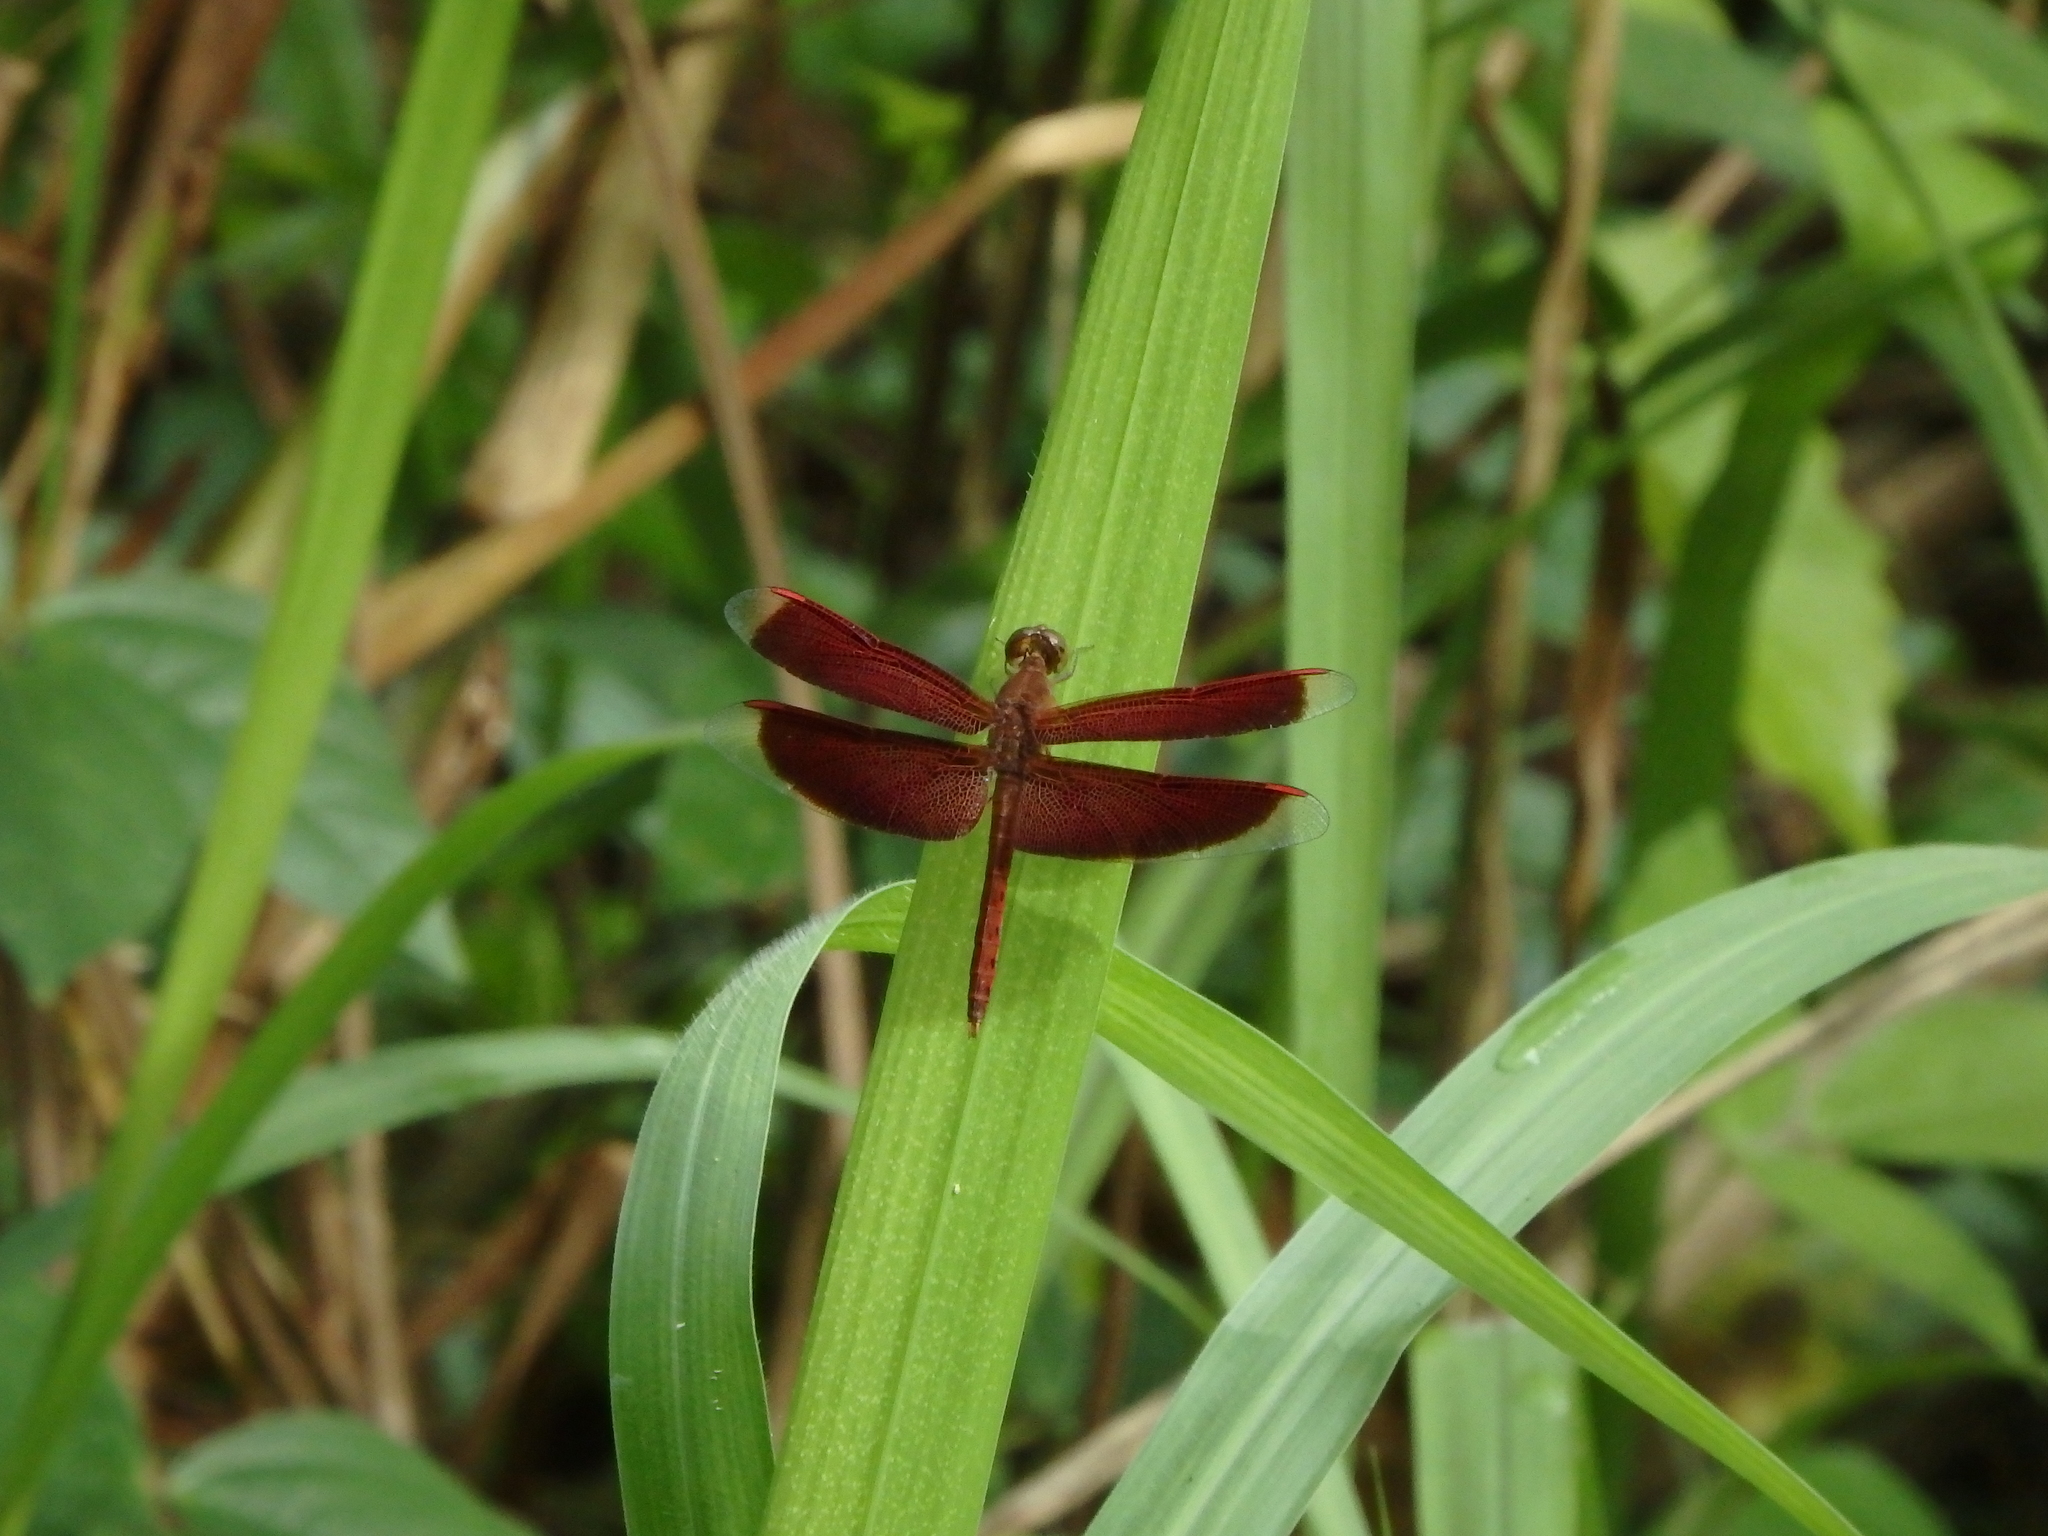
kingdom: Animalia
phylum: Arthropoda
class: Insecta
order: Odonata
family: Libellulidae
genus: Neurothemis
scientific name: Neurothemis fluctuans
